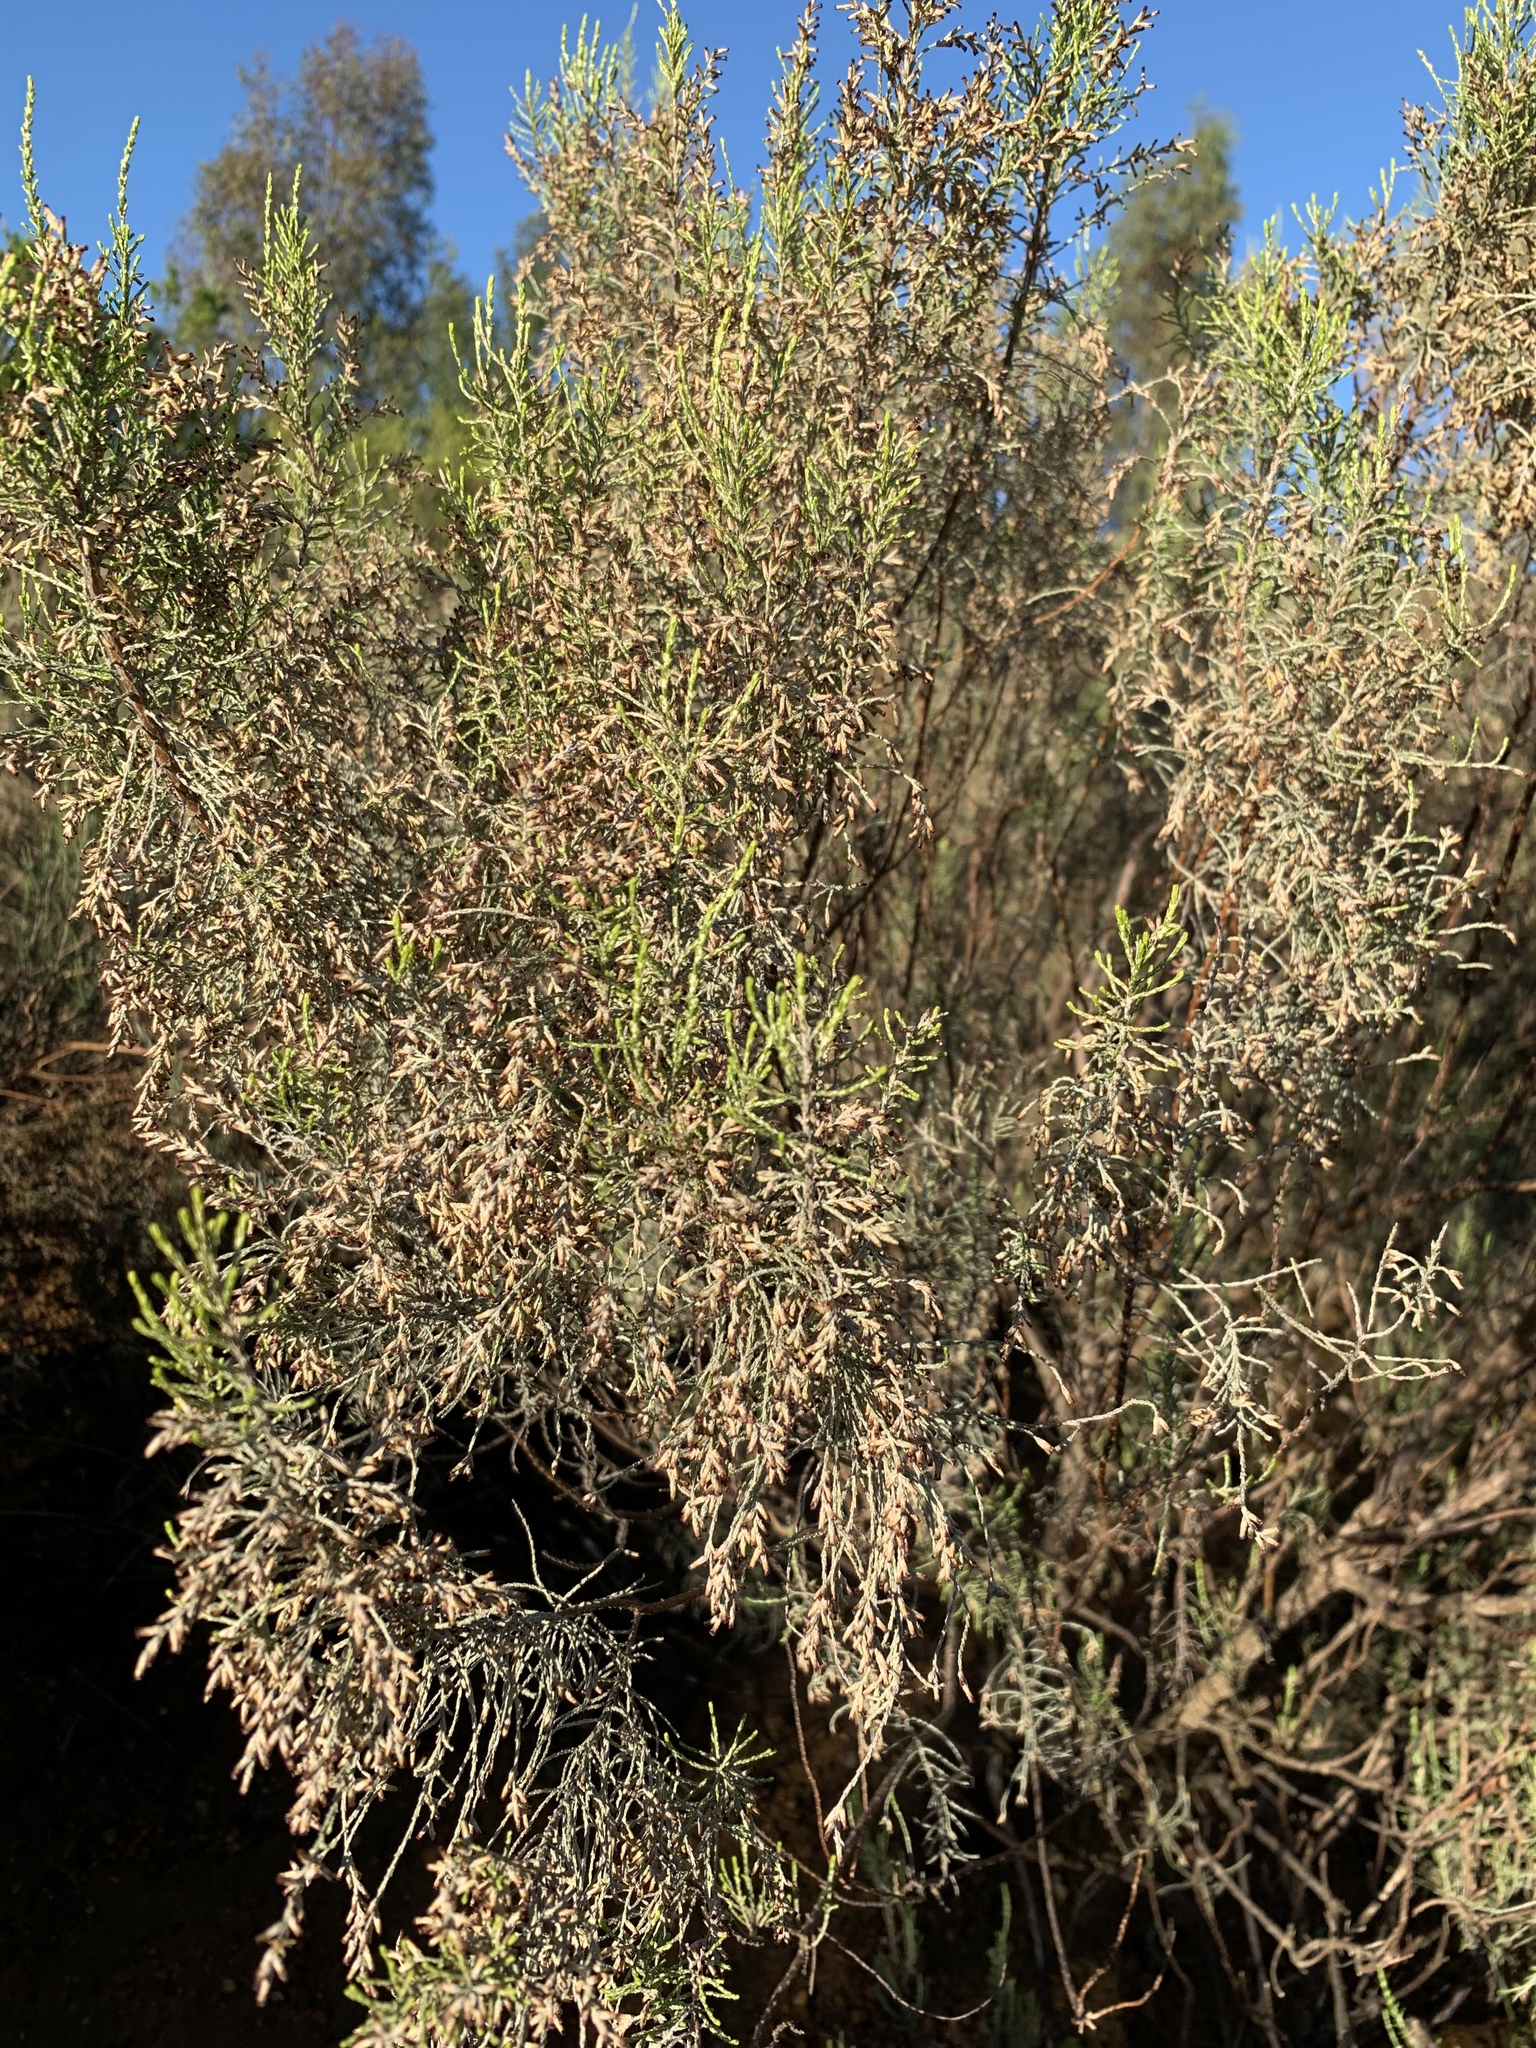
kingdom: Plantae
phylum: Tracheophyta
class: Magnoliopsida
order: Asterales
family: Asteraceae
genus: Dicerothamnus
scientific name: Dicerothamnus rhinocerotis
